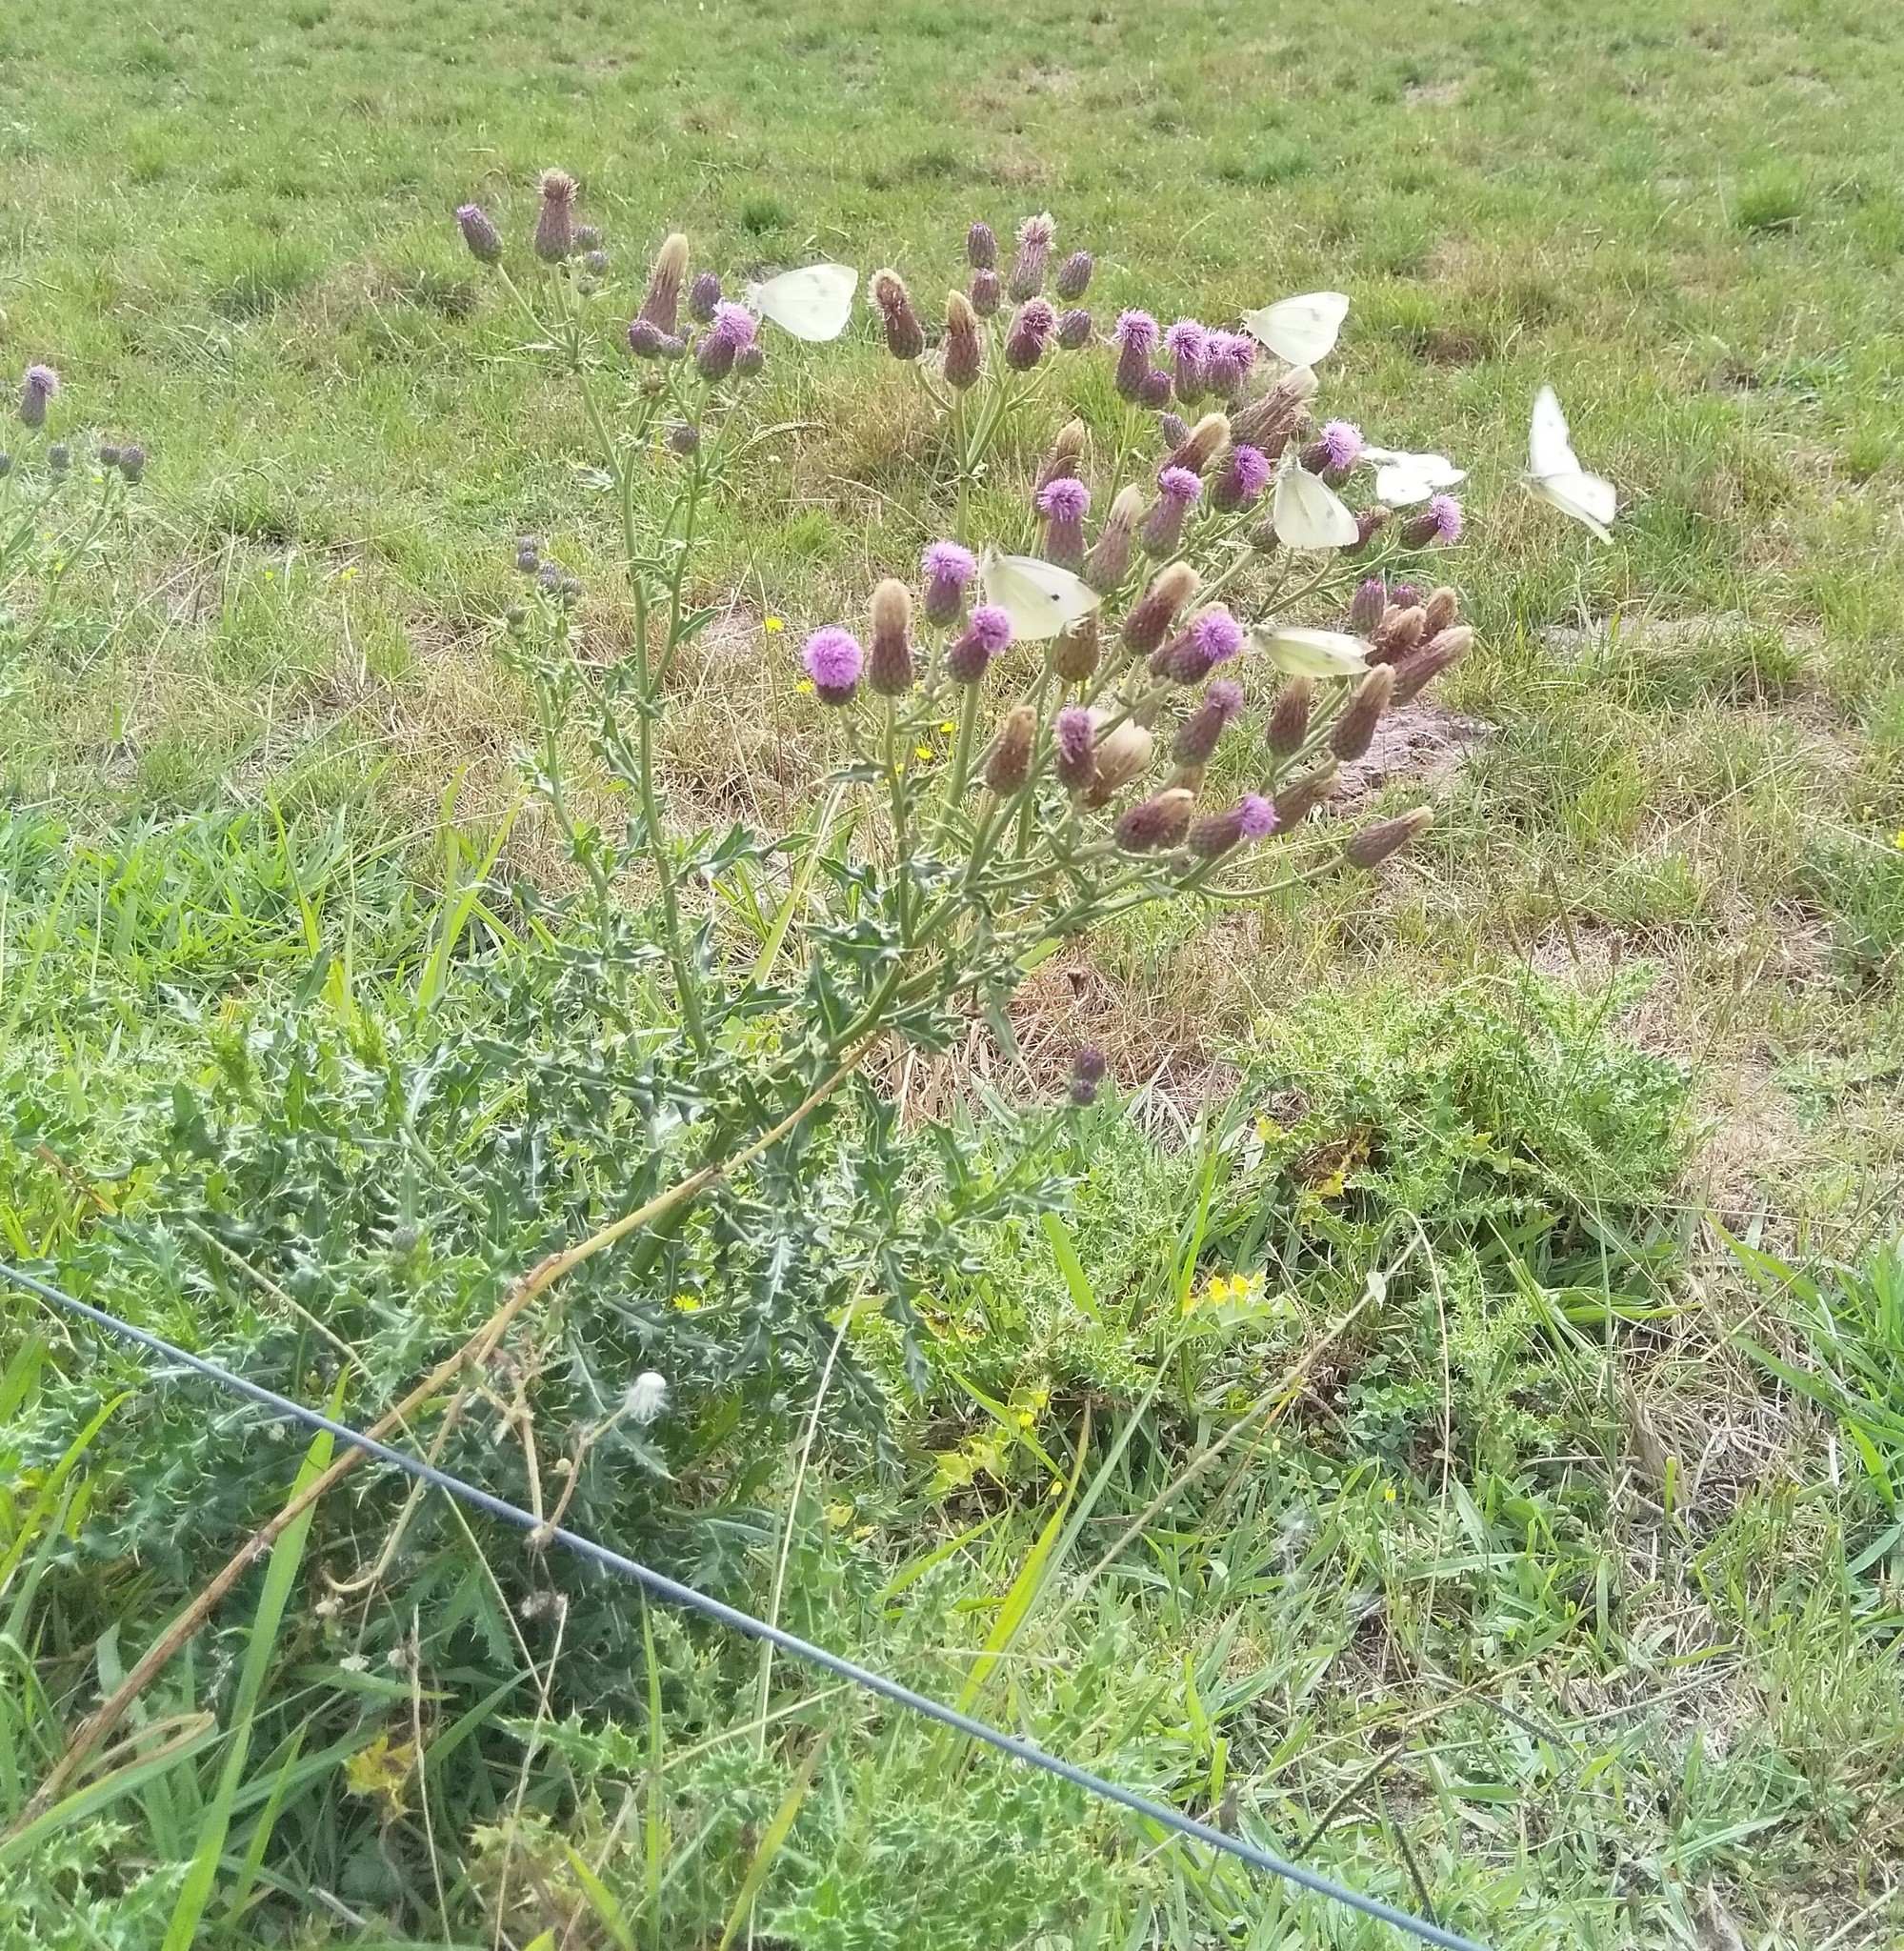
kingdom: Plantae
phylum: Tracheophyta
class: Magnoliopsida
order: Asterales
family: Asteraceae
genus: Cirsium
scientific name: Cirsium arvense
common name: Creeping thistle
